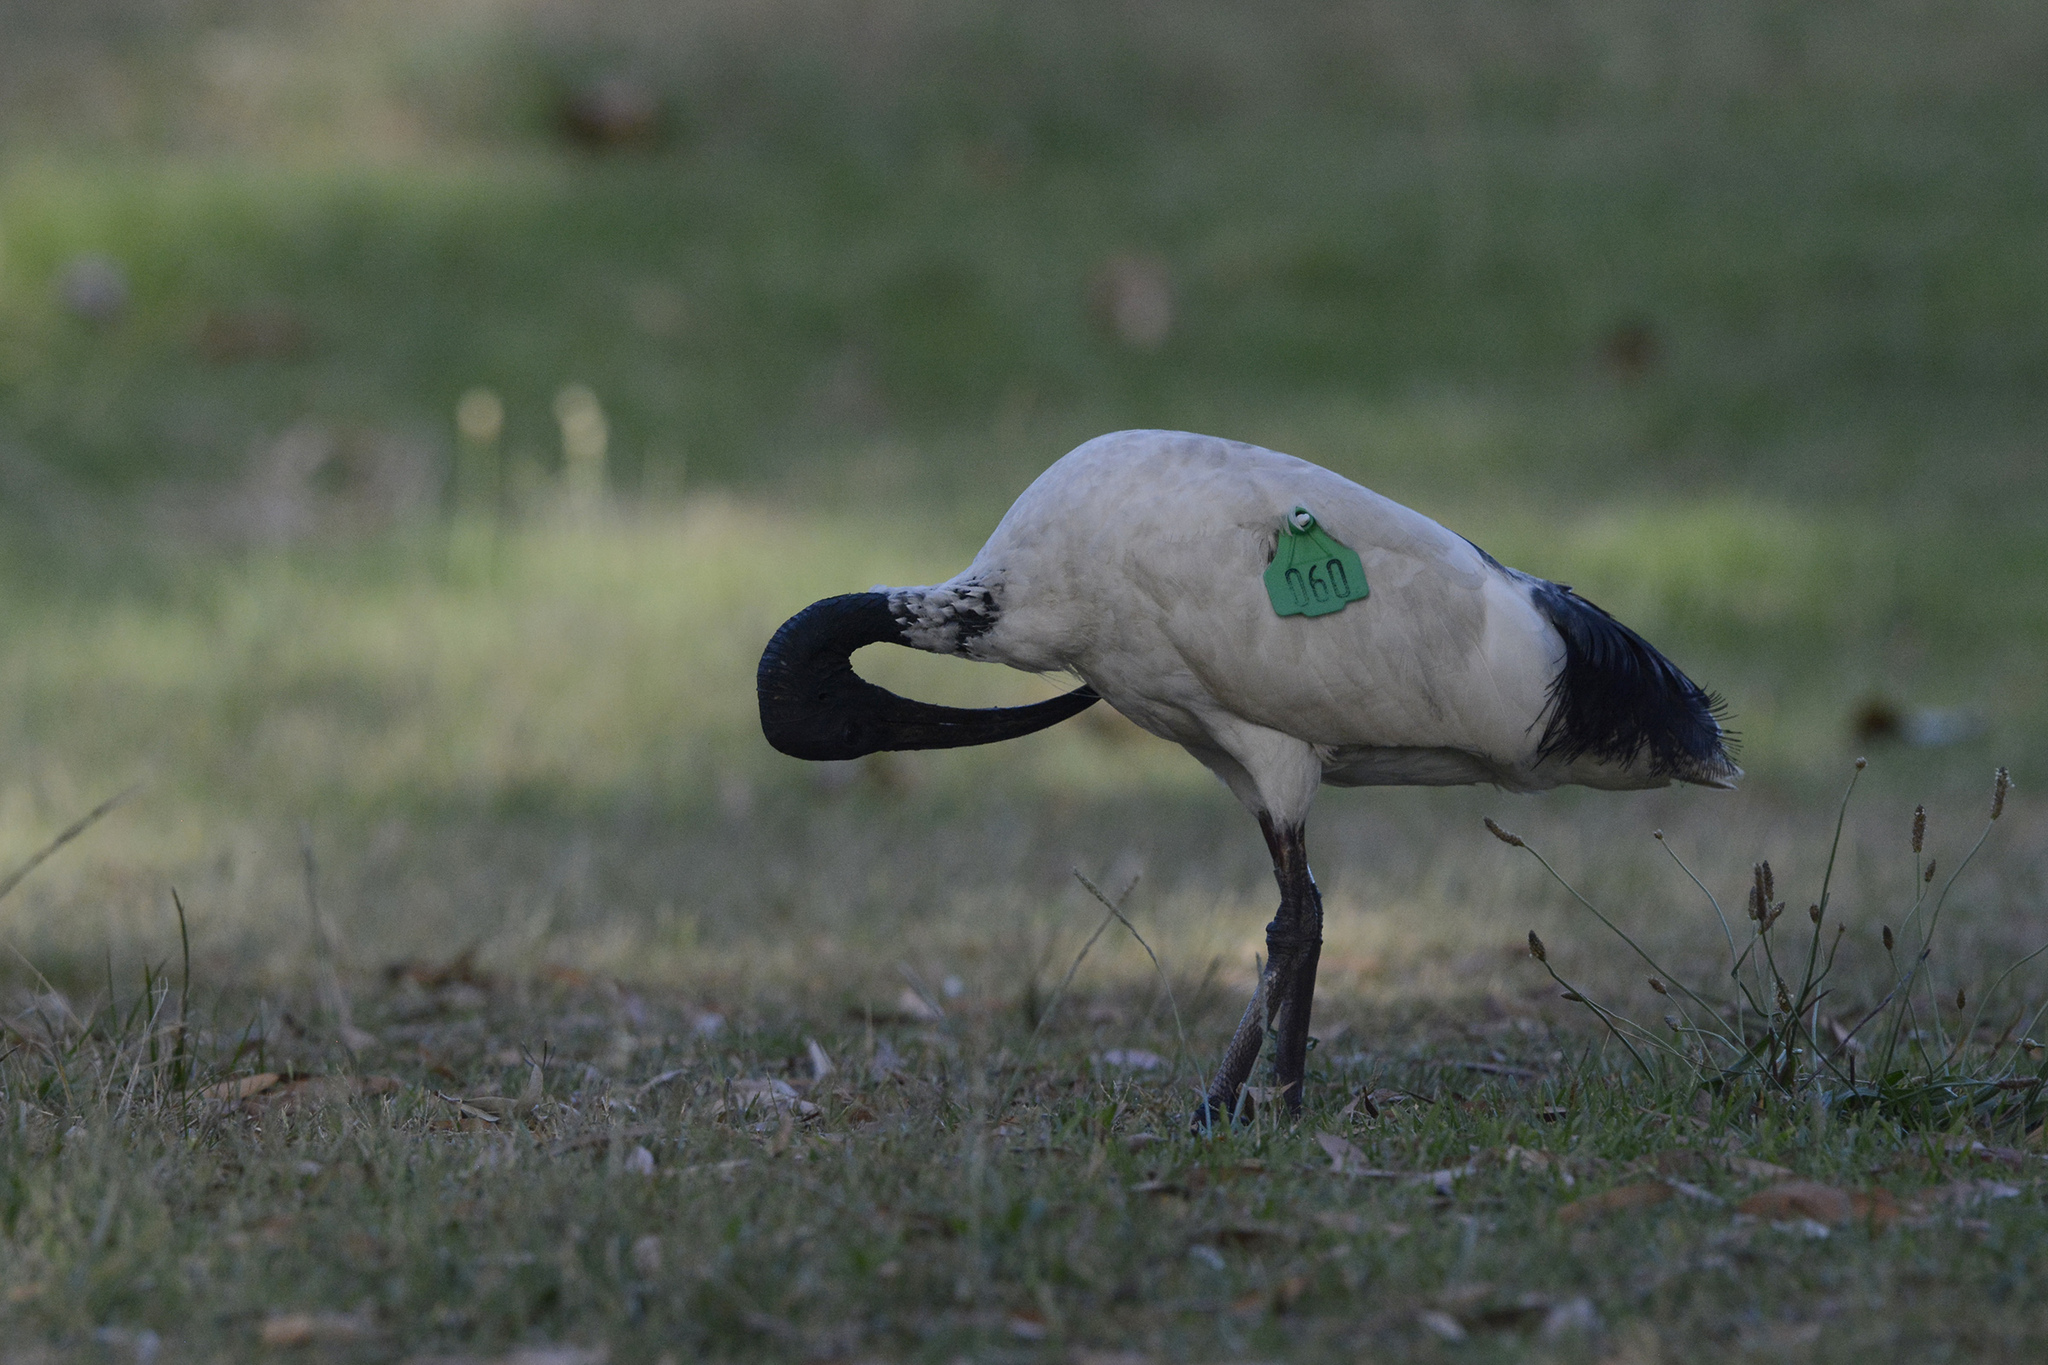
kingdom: Animalia
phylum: Chordata
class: Aves
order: Pelecaniformes
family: Threskiornithidae
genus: Threskiornis
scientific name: Threskiornis molucca
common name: Australian white ibis
